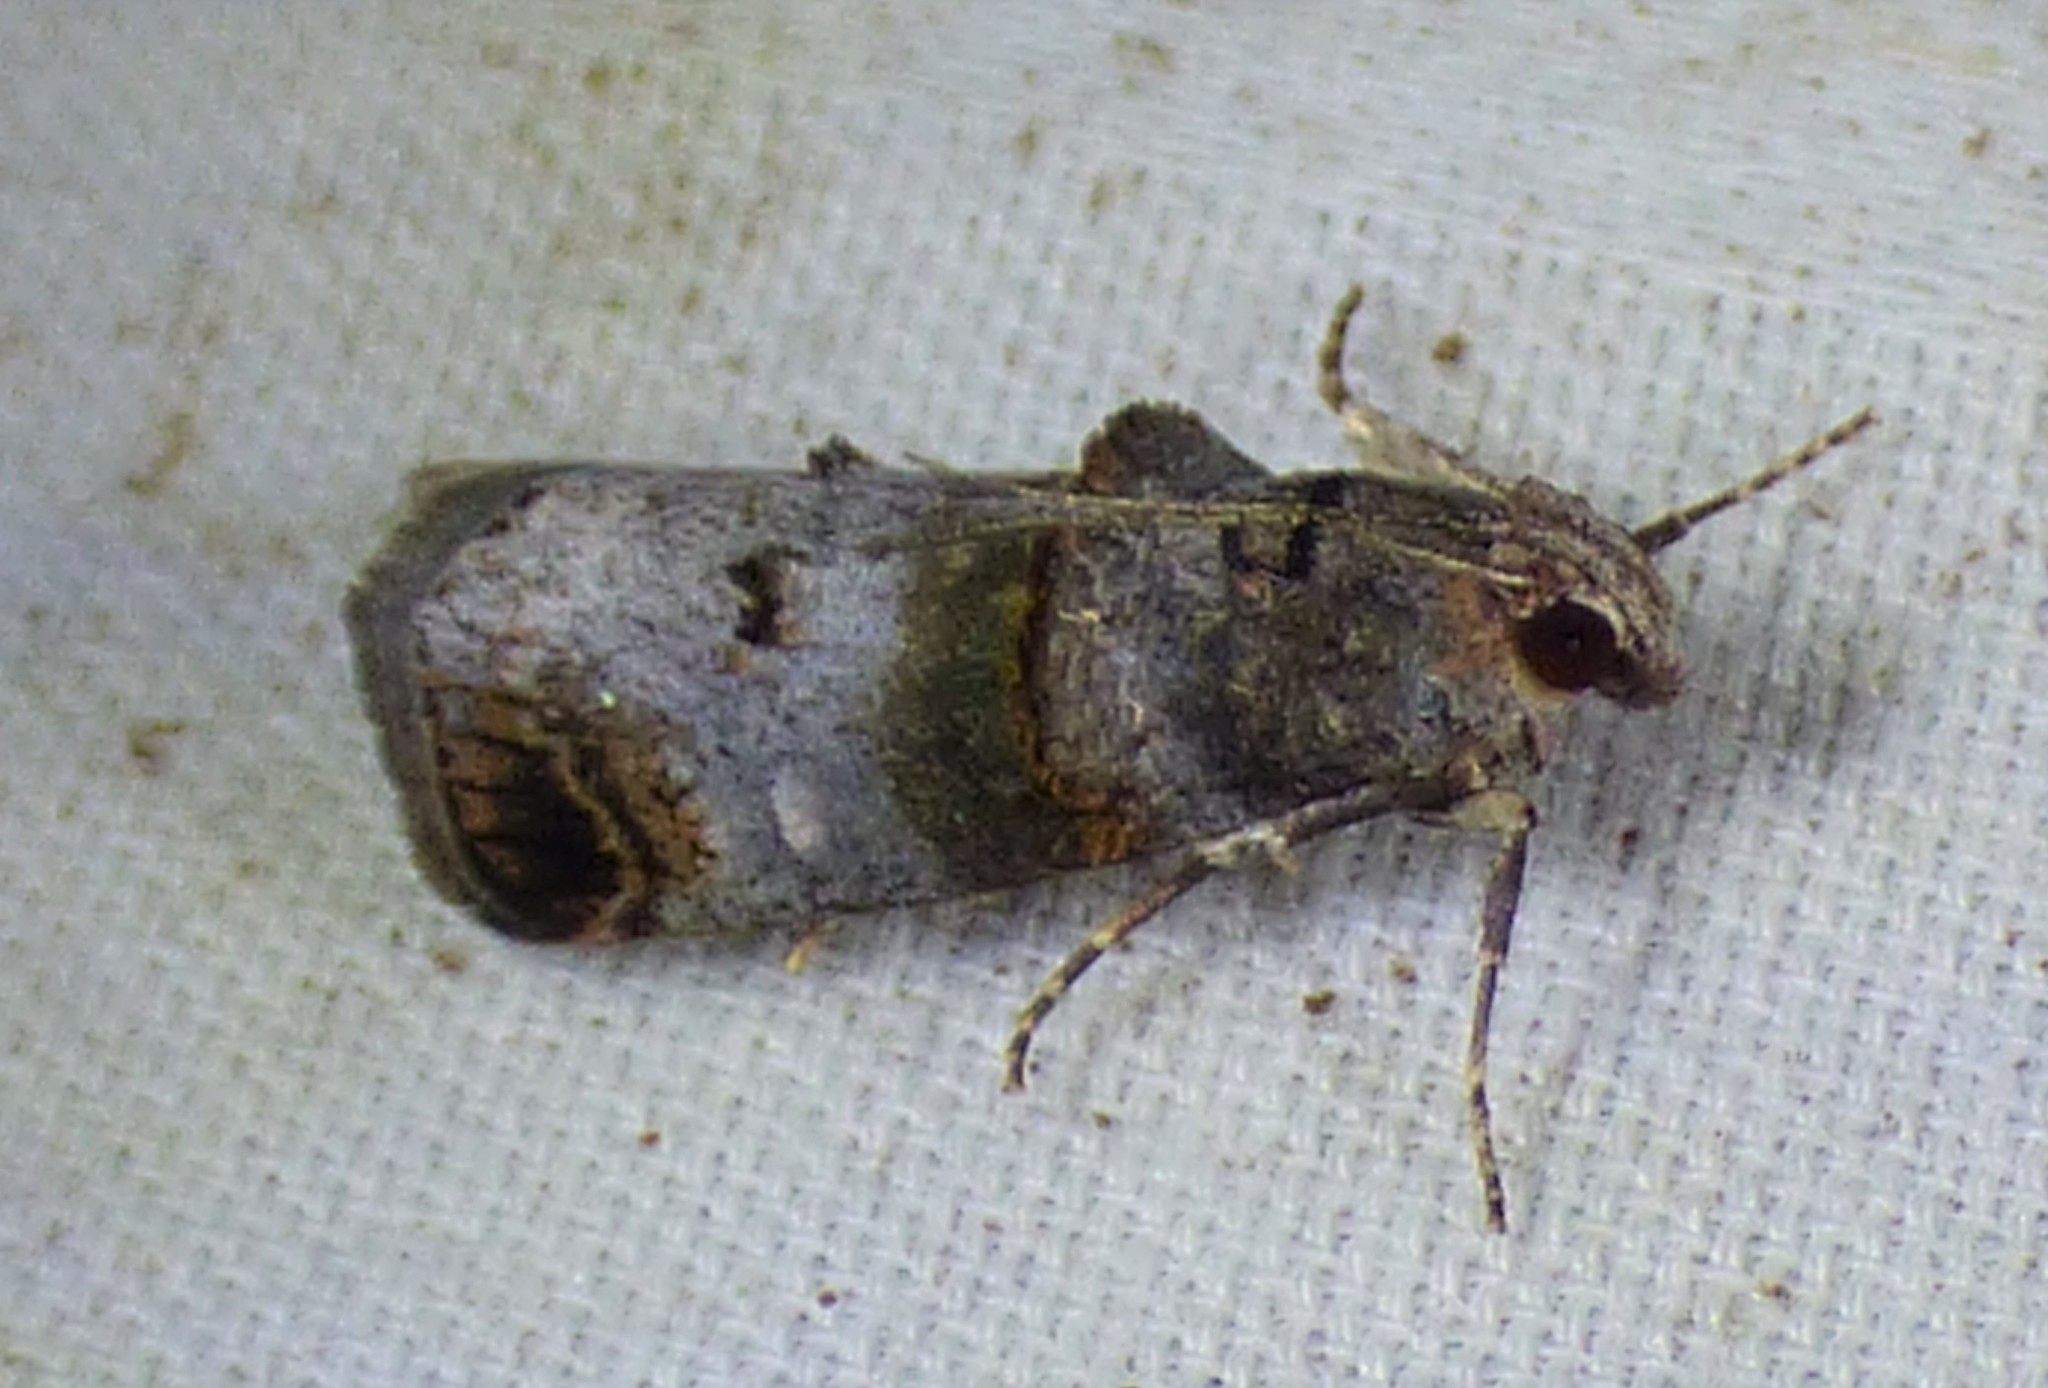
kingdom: Animalia
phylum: Arthropoda
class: Insecta
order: Lepidoptera
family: Pyralidae
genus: Oneida
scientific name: Oneida lunulalis
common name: Orange-tufted oneida moth
